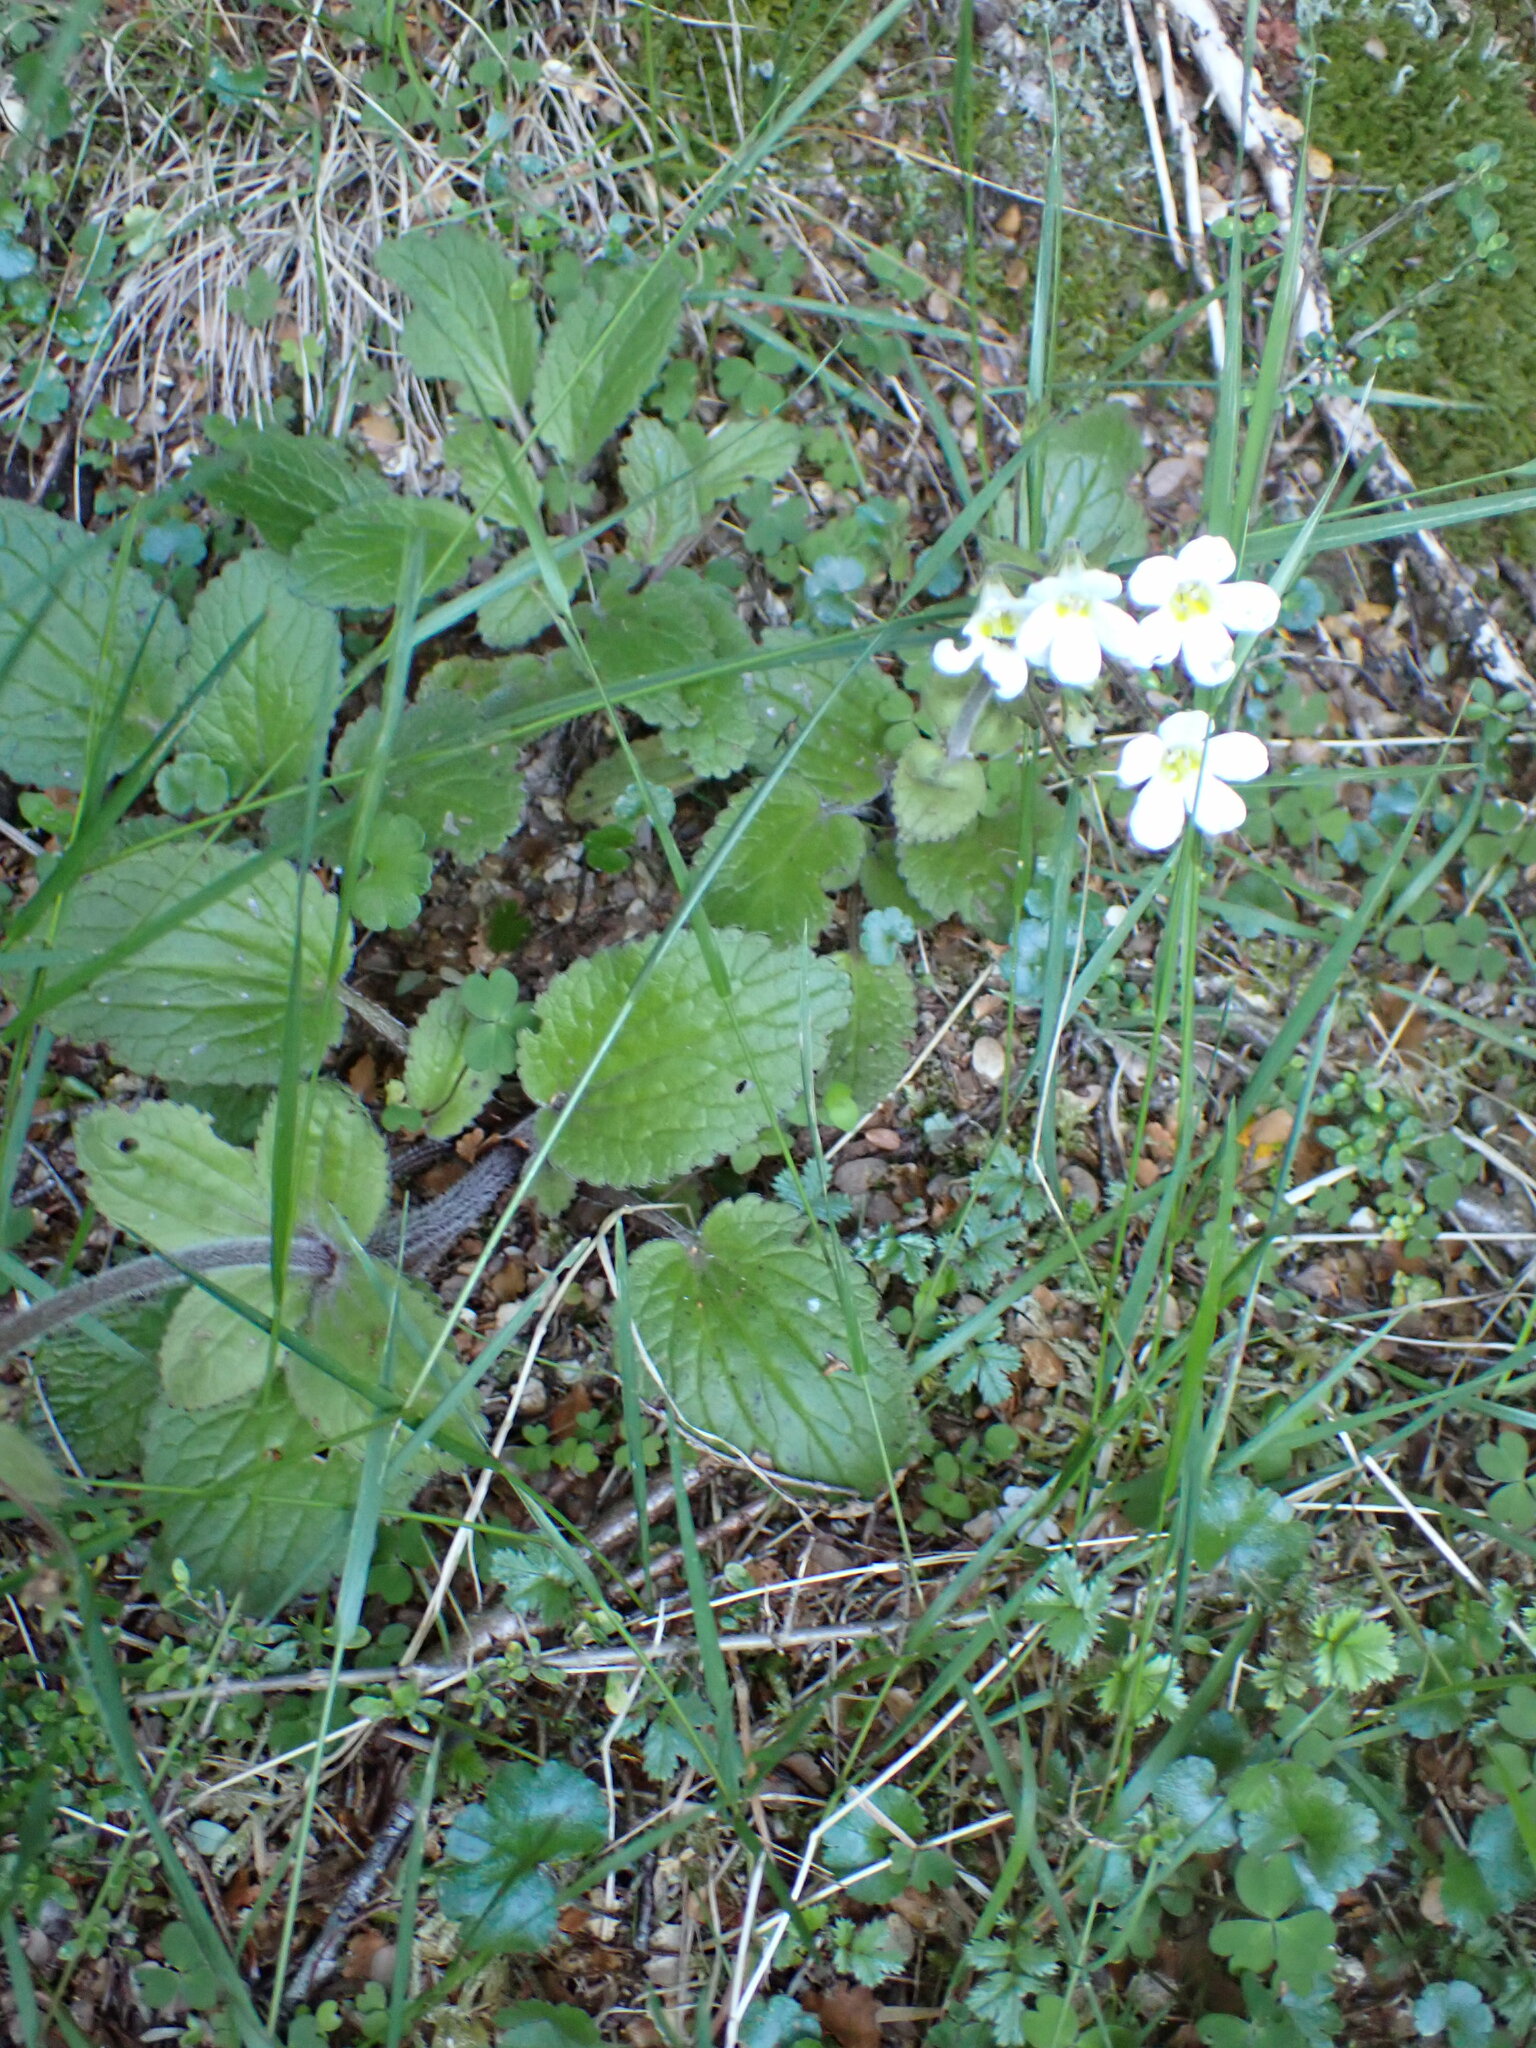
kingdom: Plantae
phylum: Tracheophyta
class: Magnoliopsida
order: Lamiales
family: Plantaginaceae
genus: Ourisia
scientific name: Ourisia macrophylla
